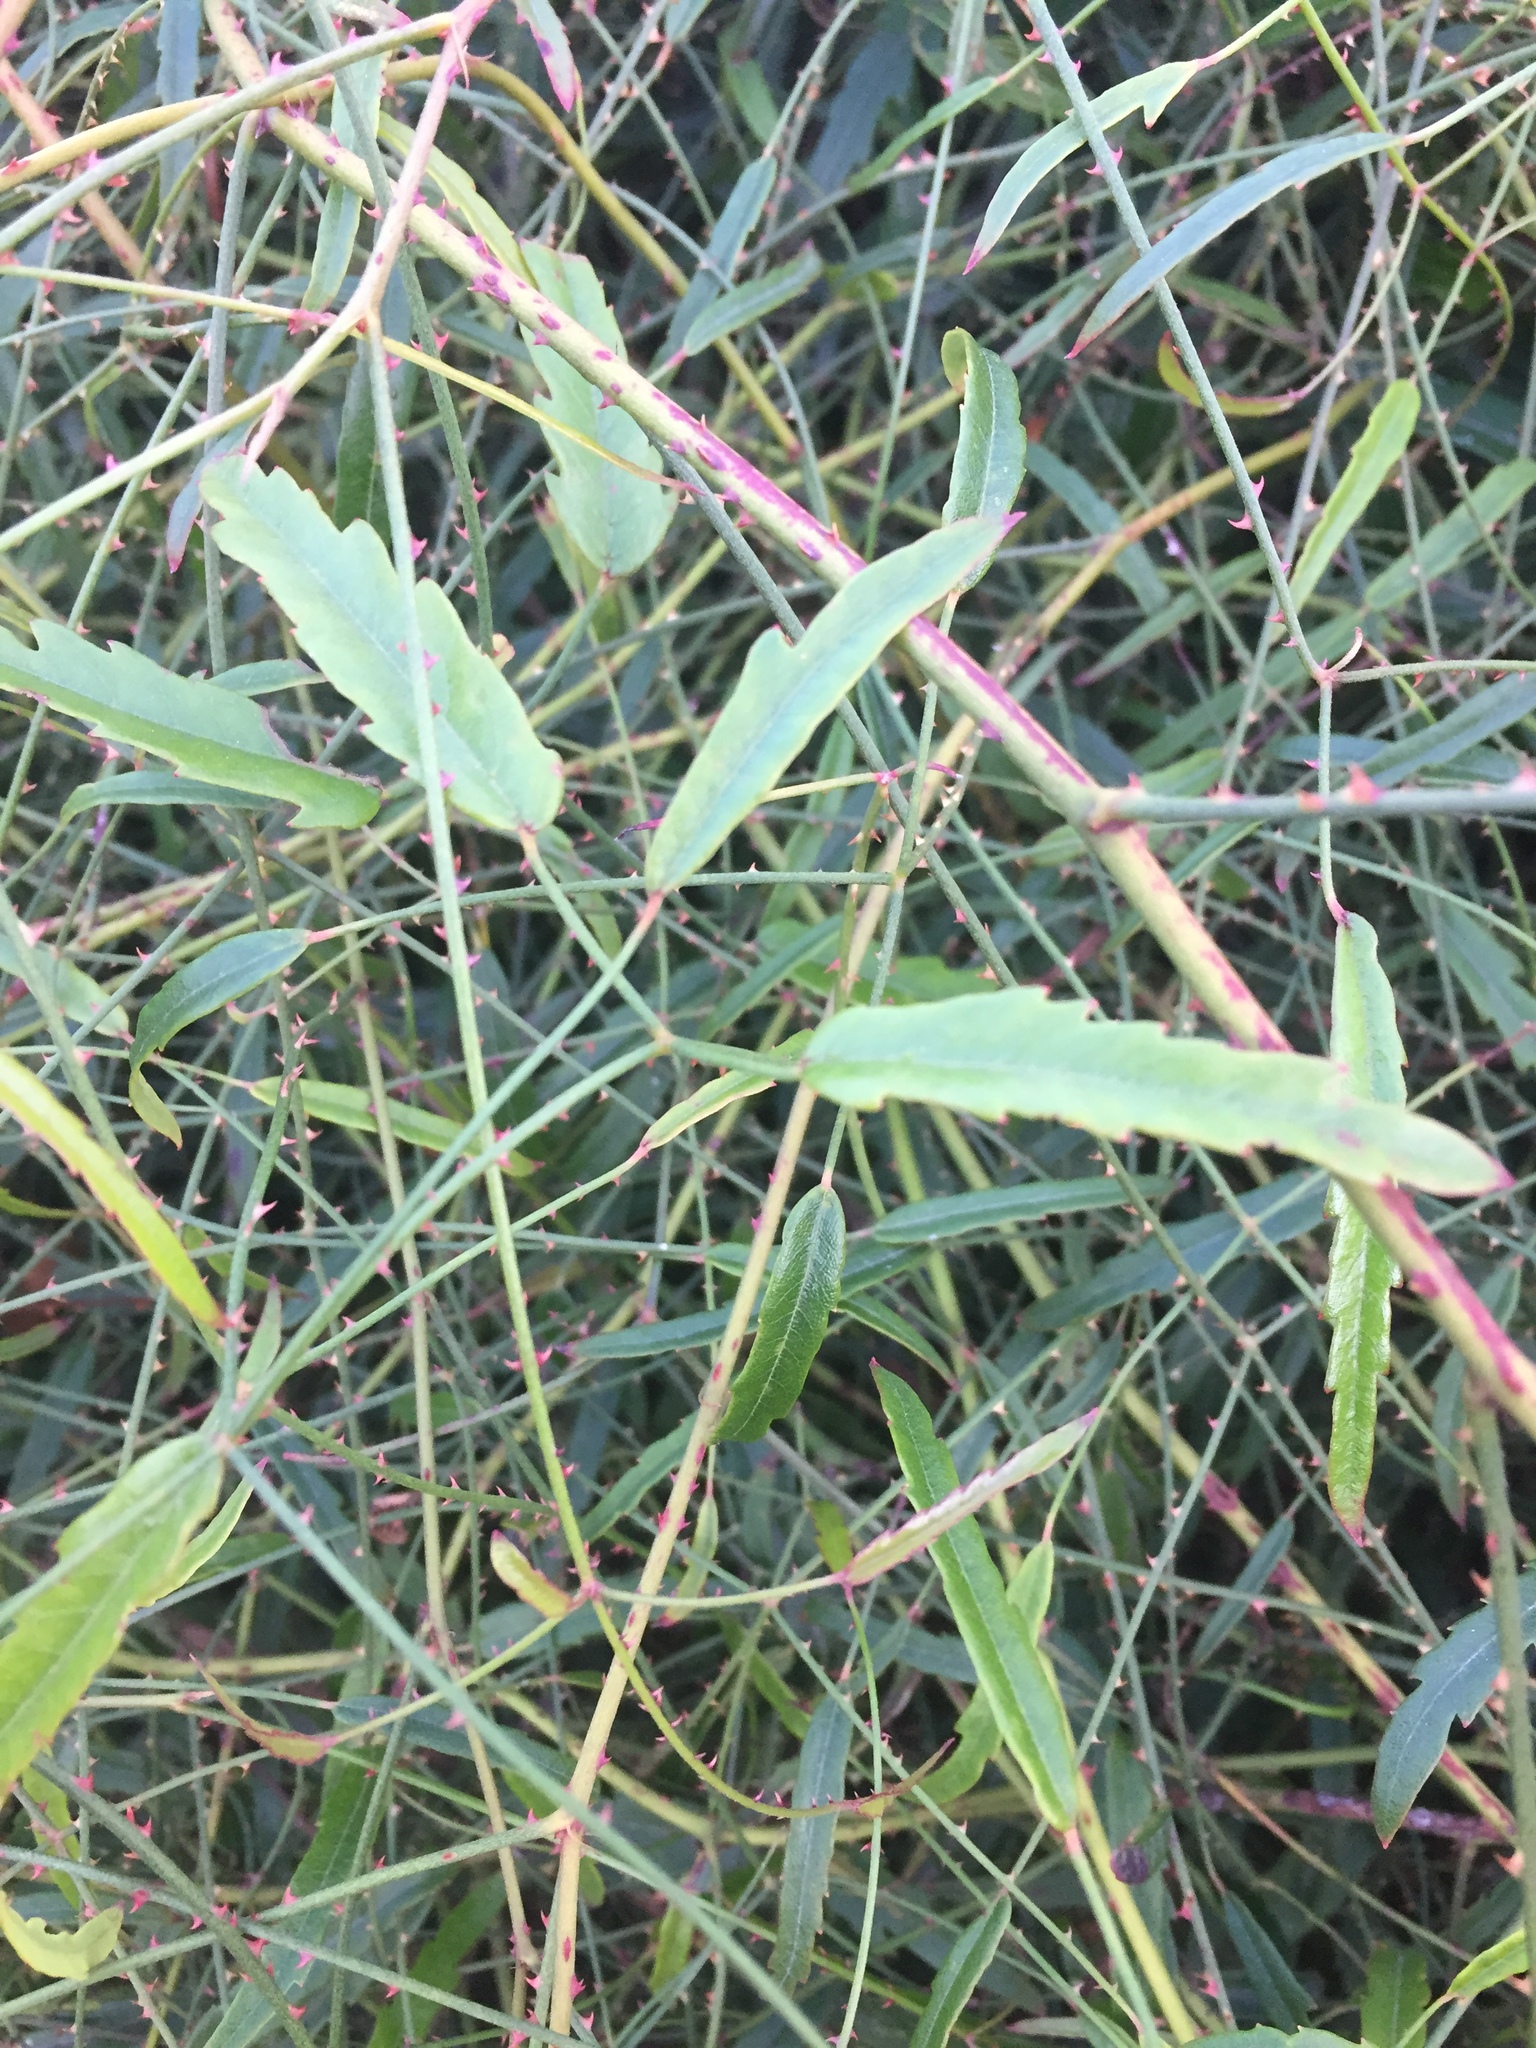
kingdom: Plantae
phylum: Tracheophyta
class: Magnoliopsida
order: Rosales
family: Rosaceae
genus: Rubus
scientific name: Rubus schmidelioides
